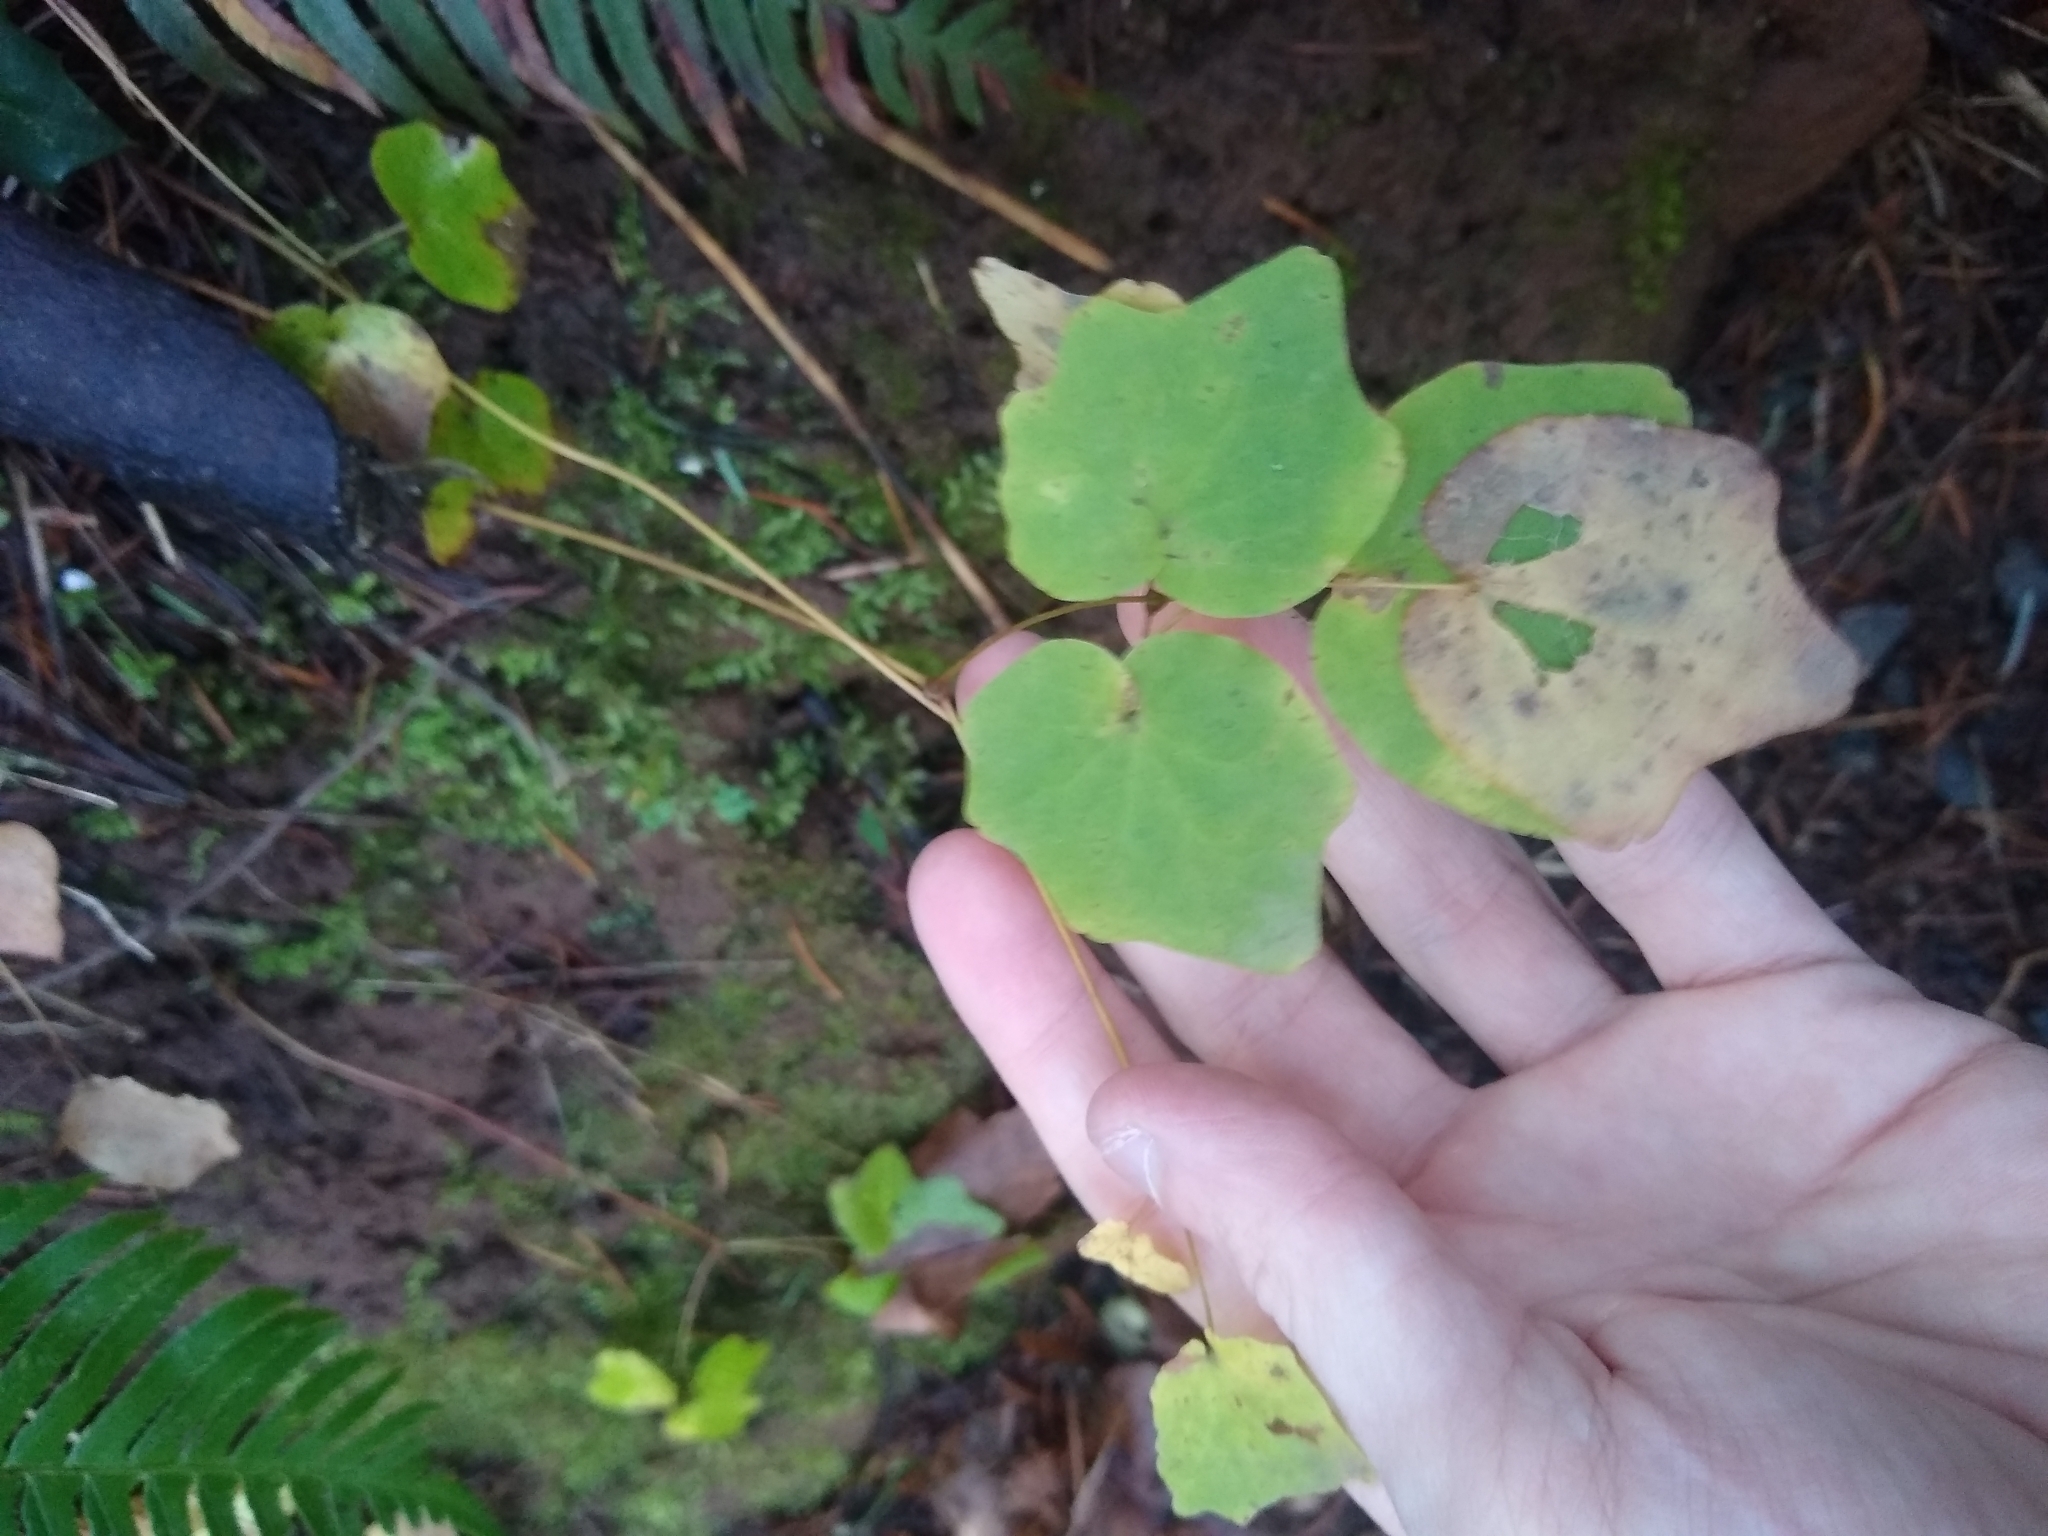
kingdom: Plantae
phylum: Tracheophyta
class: Magnoliopsida
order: Ranunculales
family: Berberidaceae
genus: Vancouveria
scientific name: Vancouveria hexandra
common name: Northern inside-out-flower
